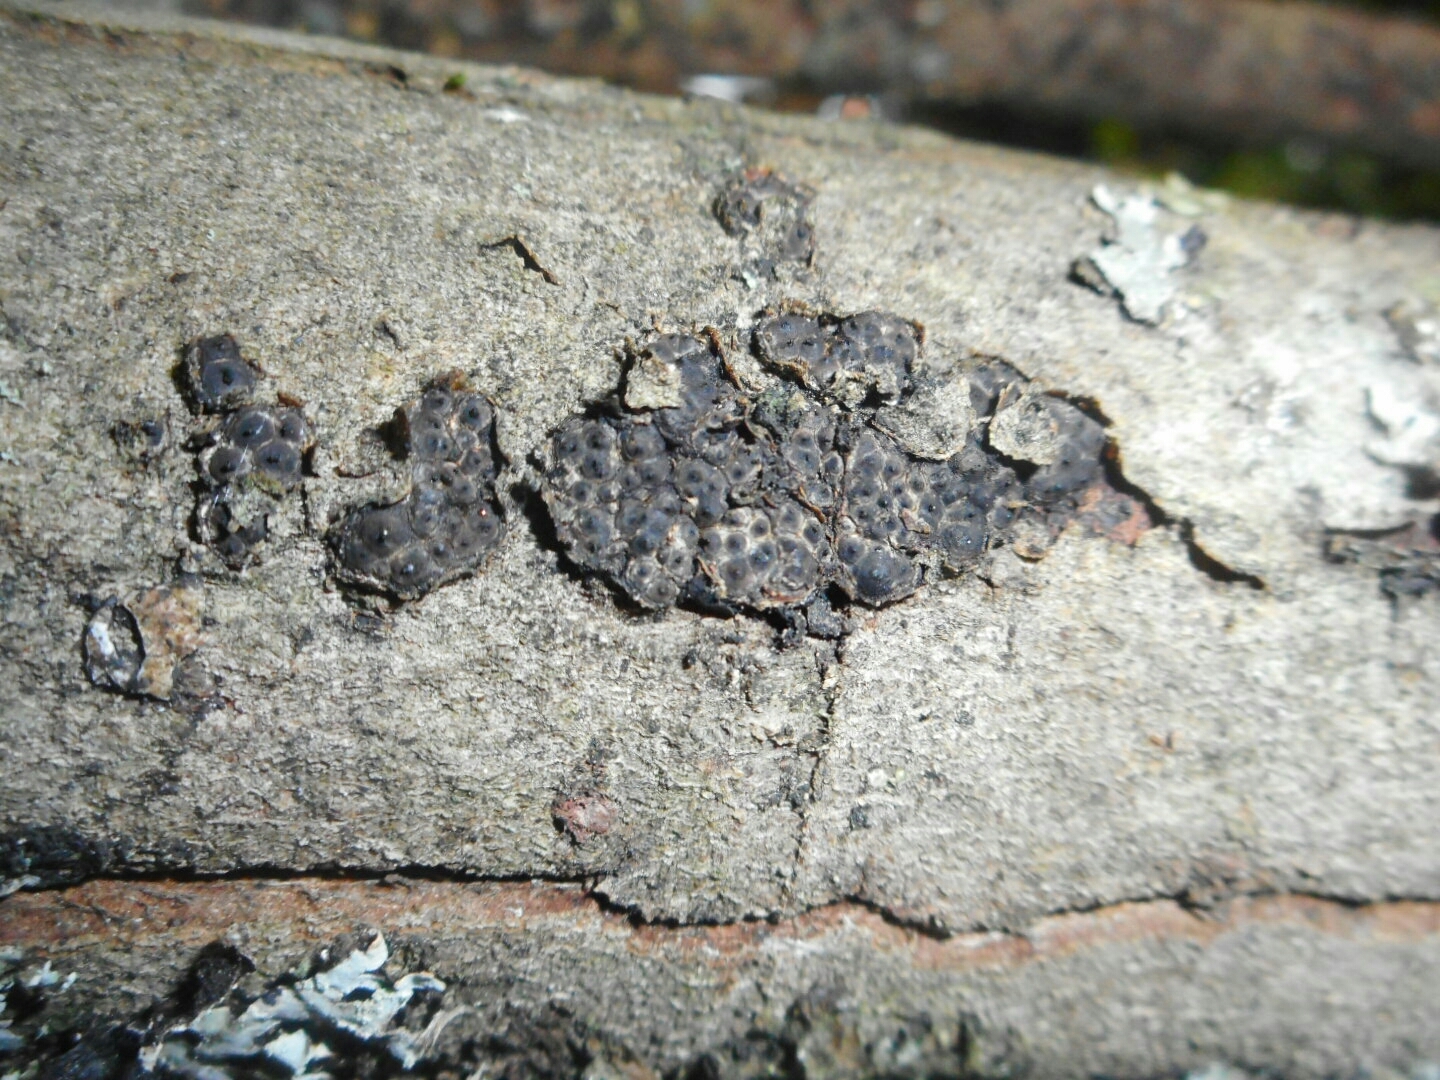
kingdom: Fungi
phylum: Ascomycota
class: Sordariomycetes
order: Xylariales
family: Xylariaceae
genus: Entoleuca
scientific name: Entoleuca mammata
